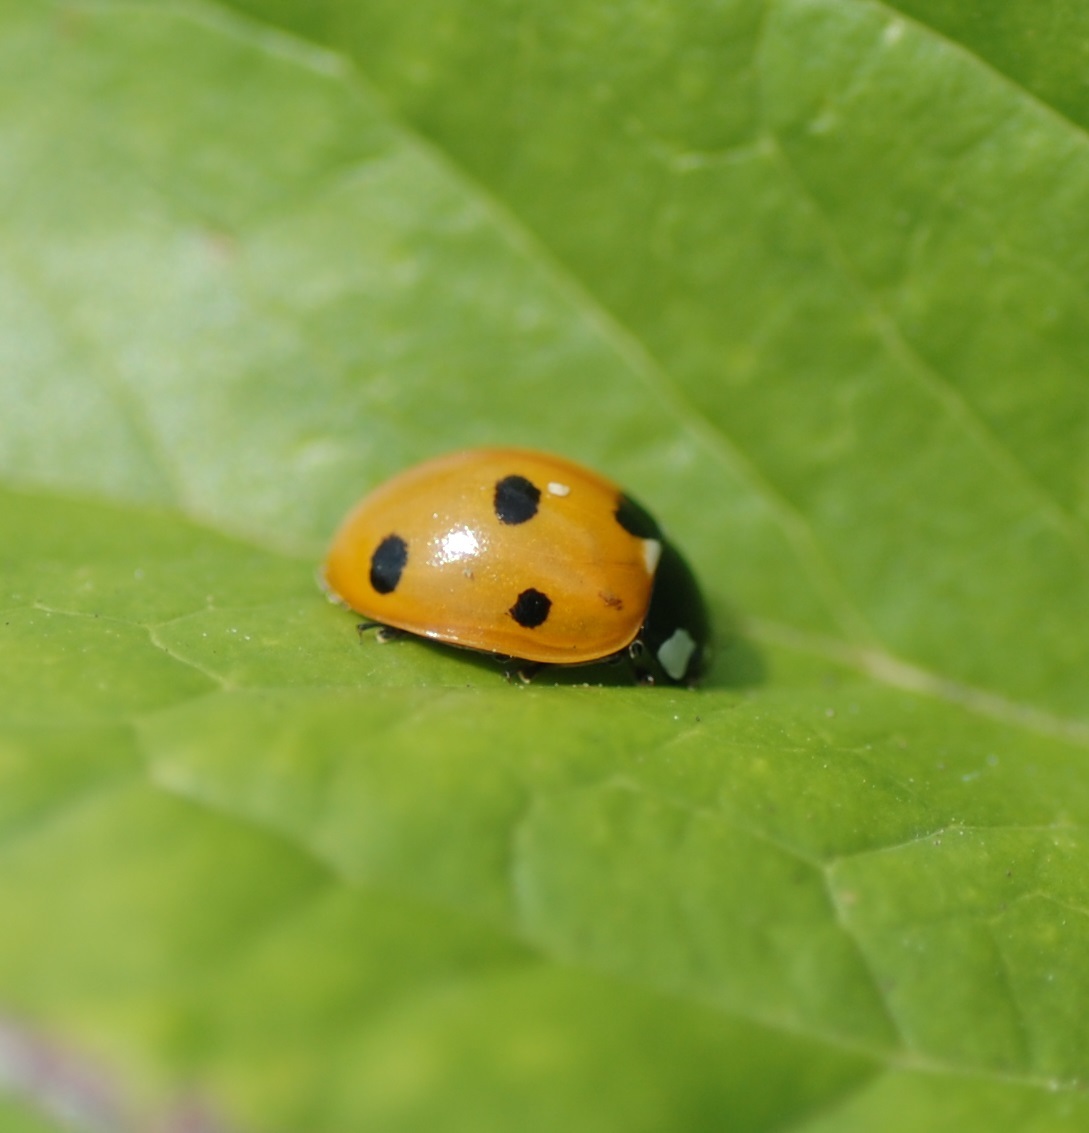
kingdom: Animalia
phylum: Arthropoda
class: Insecta
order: Coleoptera
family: Coccinellidae
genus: Coccinella
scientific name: Coccinella septempunctata
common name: Sevenspotted lady beetle
